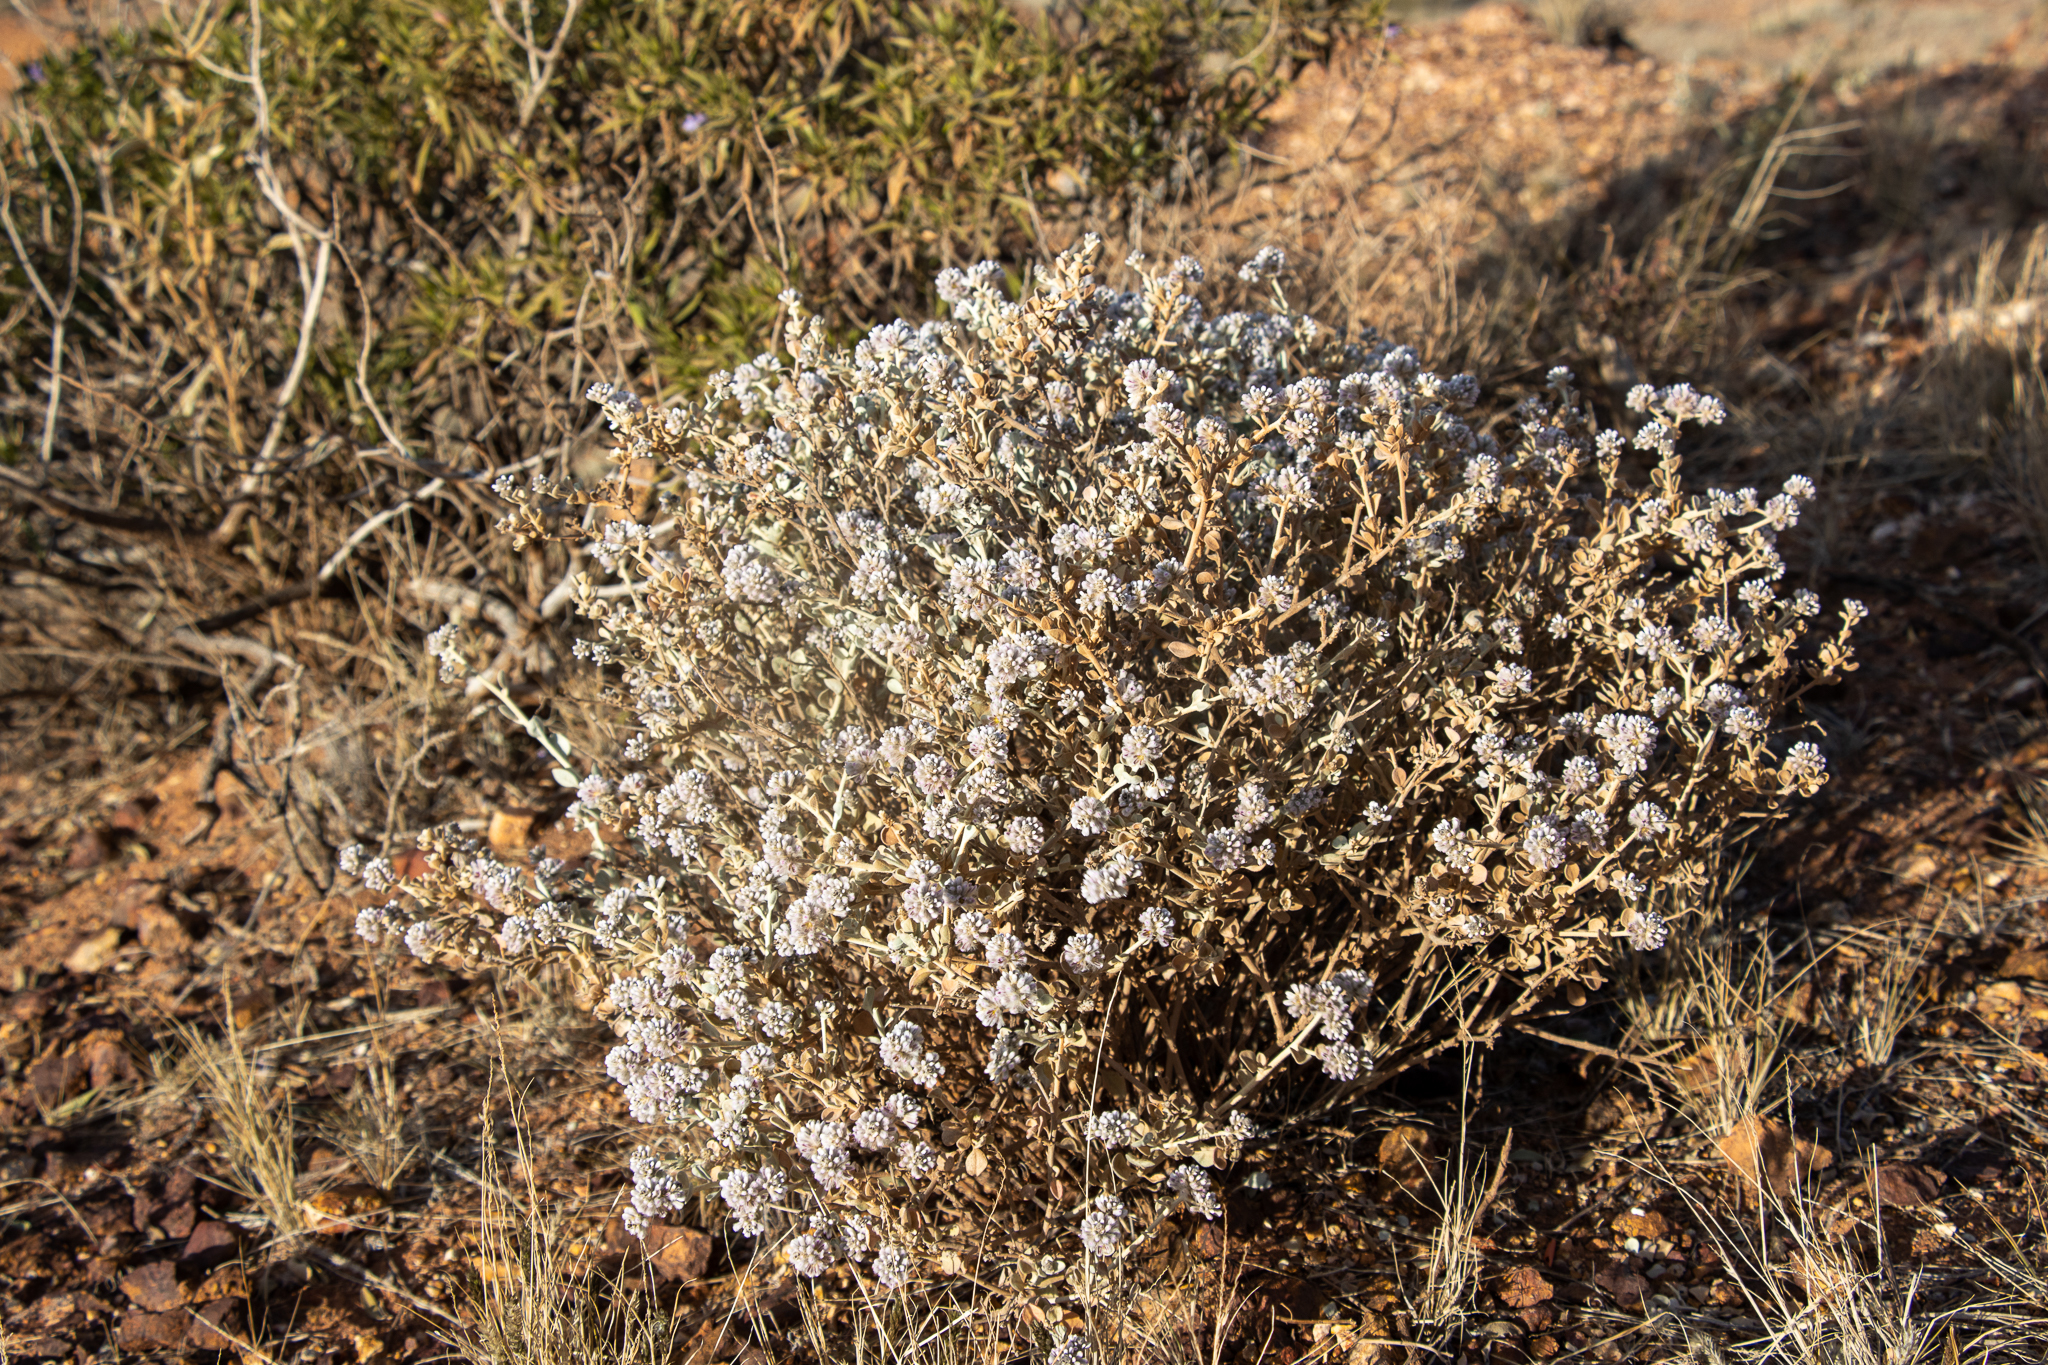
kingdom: Plantae
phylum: Tracheophyta
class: Magnoliopsida
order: Caryophyllales
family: Amaranthaceae
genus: Ptilotus
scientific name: Ptilotus obovatus
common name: Cottonbush
